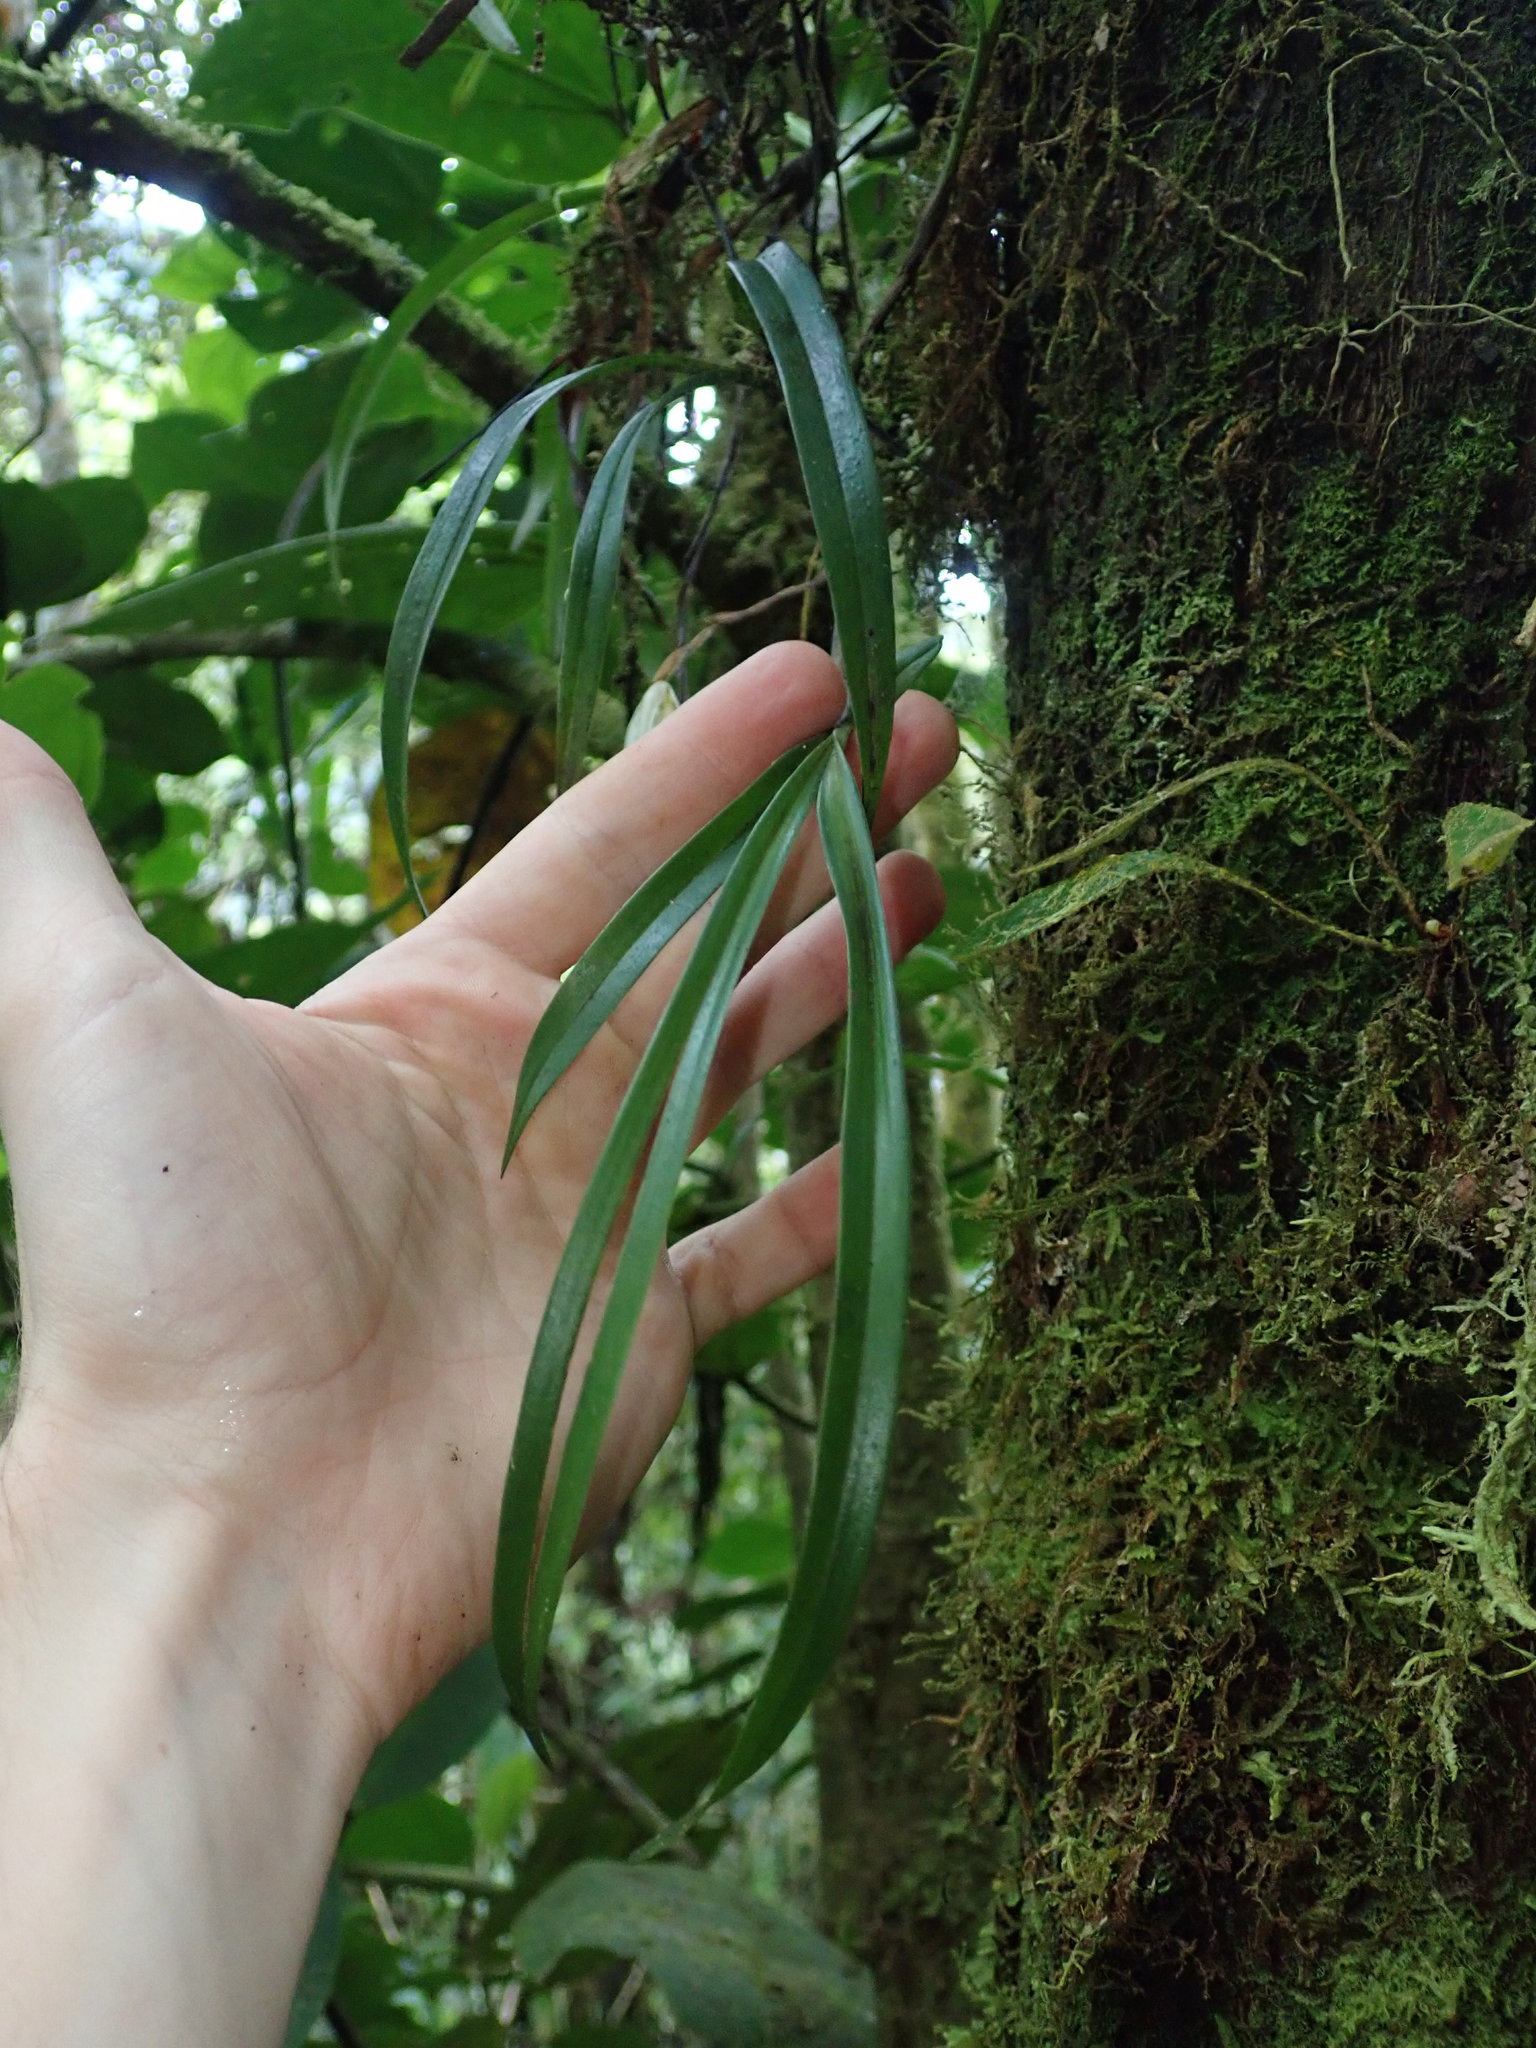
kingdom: Plantae
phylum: Tracheophyta
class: Liliopsida
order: Asparagales
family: Orchidaceae
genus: Maxillaria
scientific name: Maxillaria acuminata
